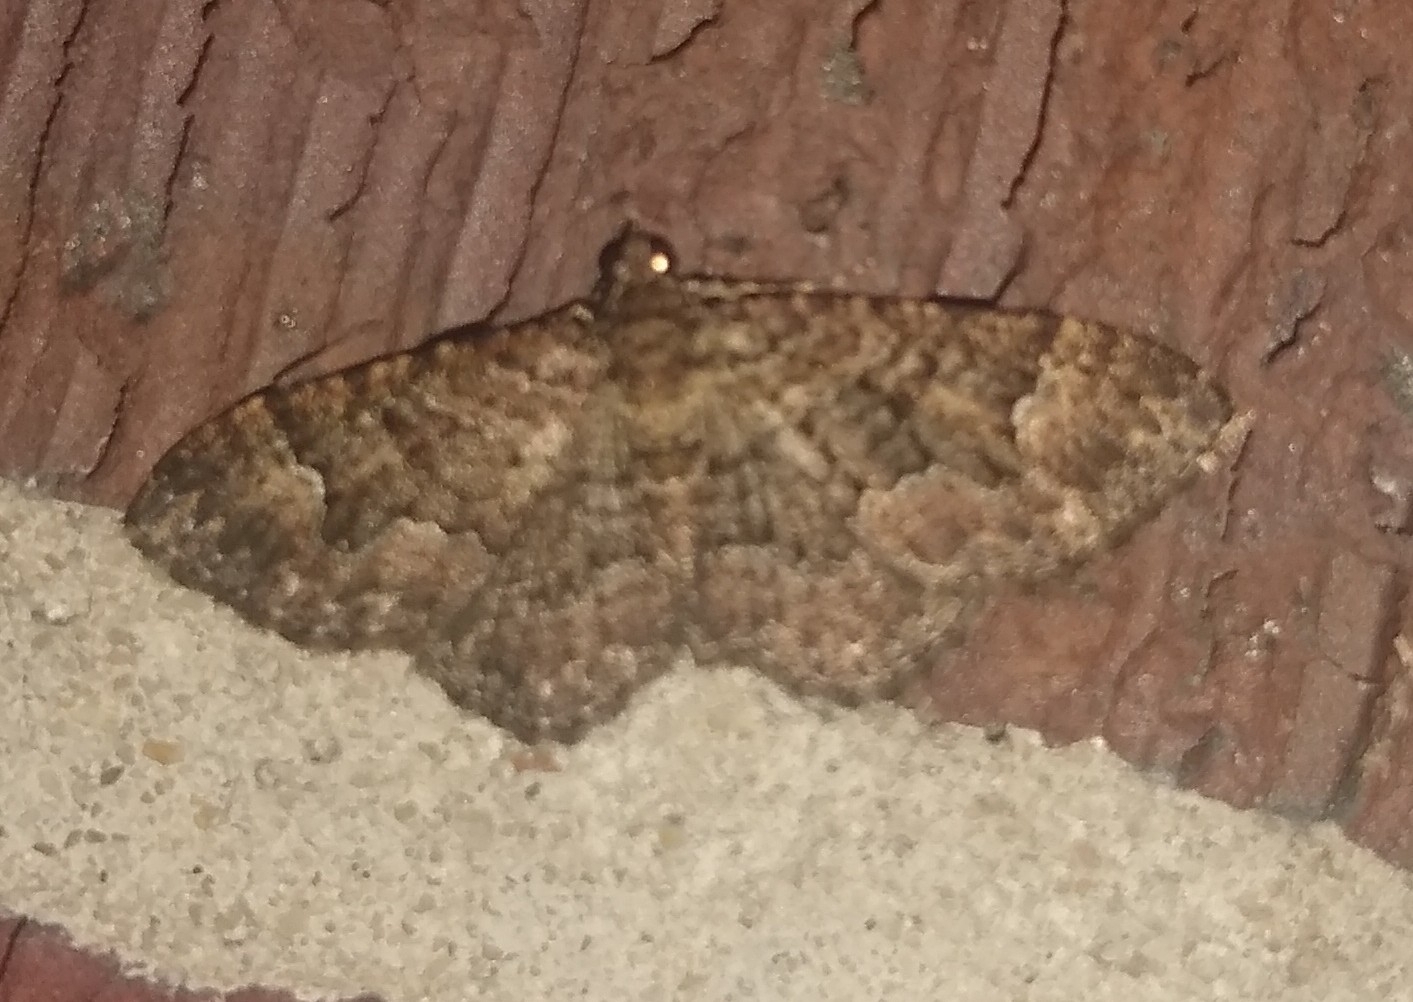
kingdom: Animalia
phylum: Arthropoda
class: Insecta
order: Lepidoptera
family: Geometridae
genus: Disclisioprocta
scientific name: Disclisioprocta stellata
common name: Somber carpet
